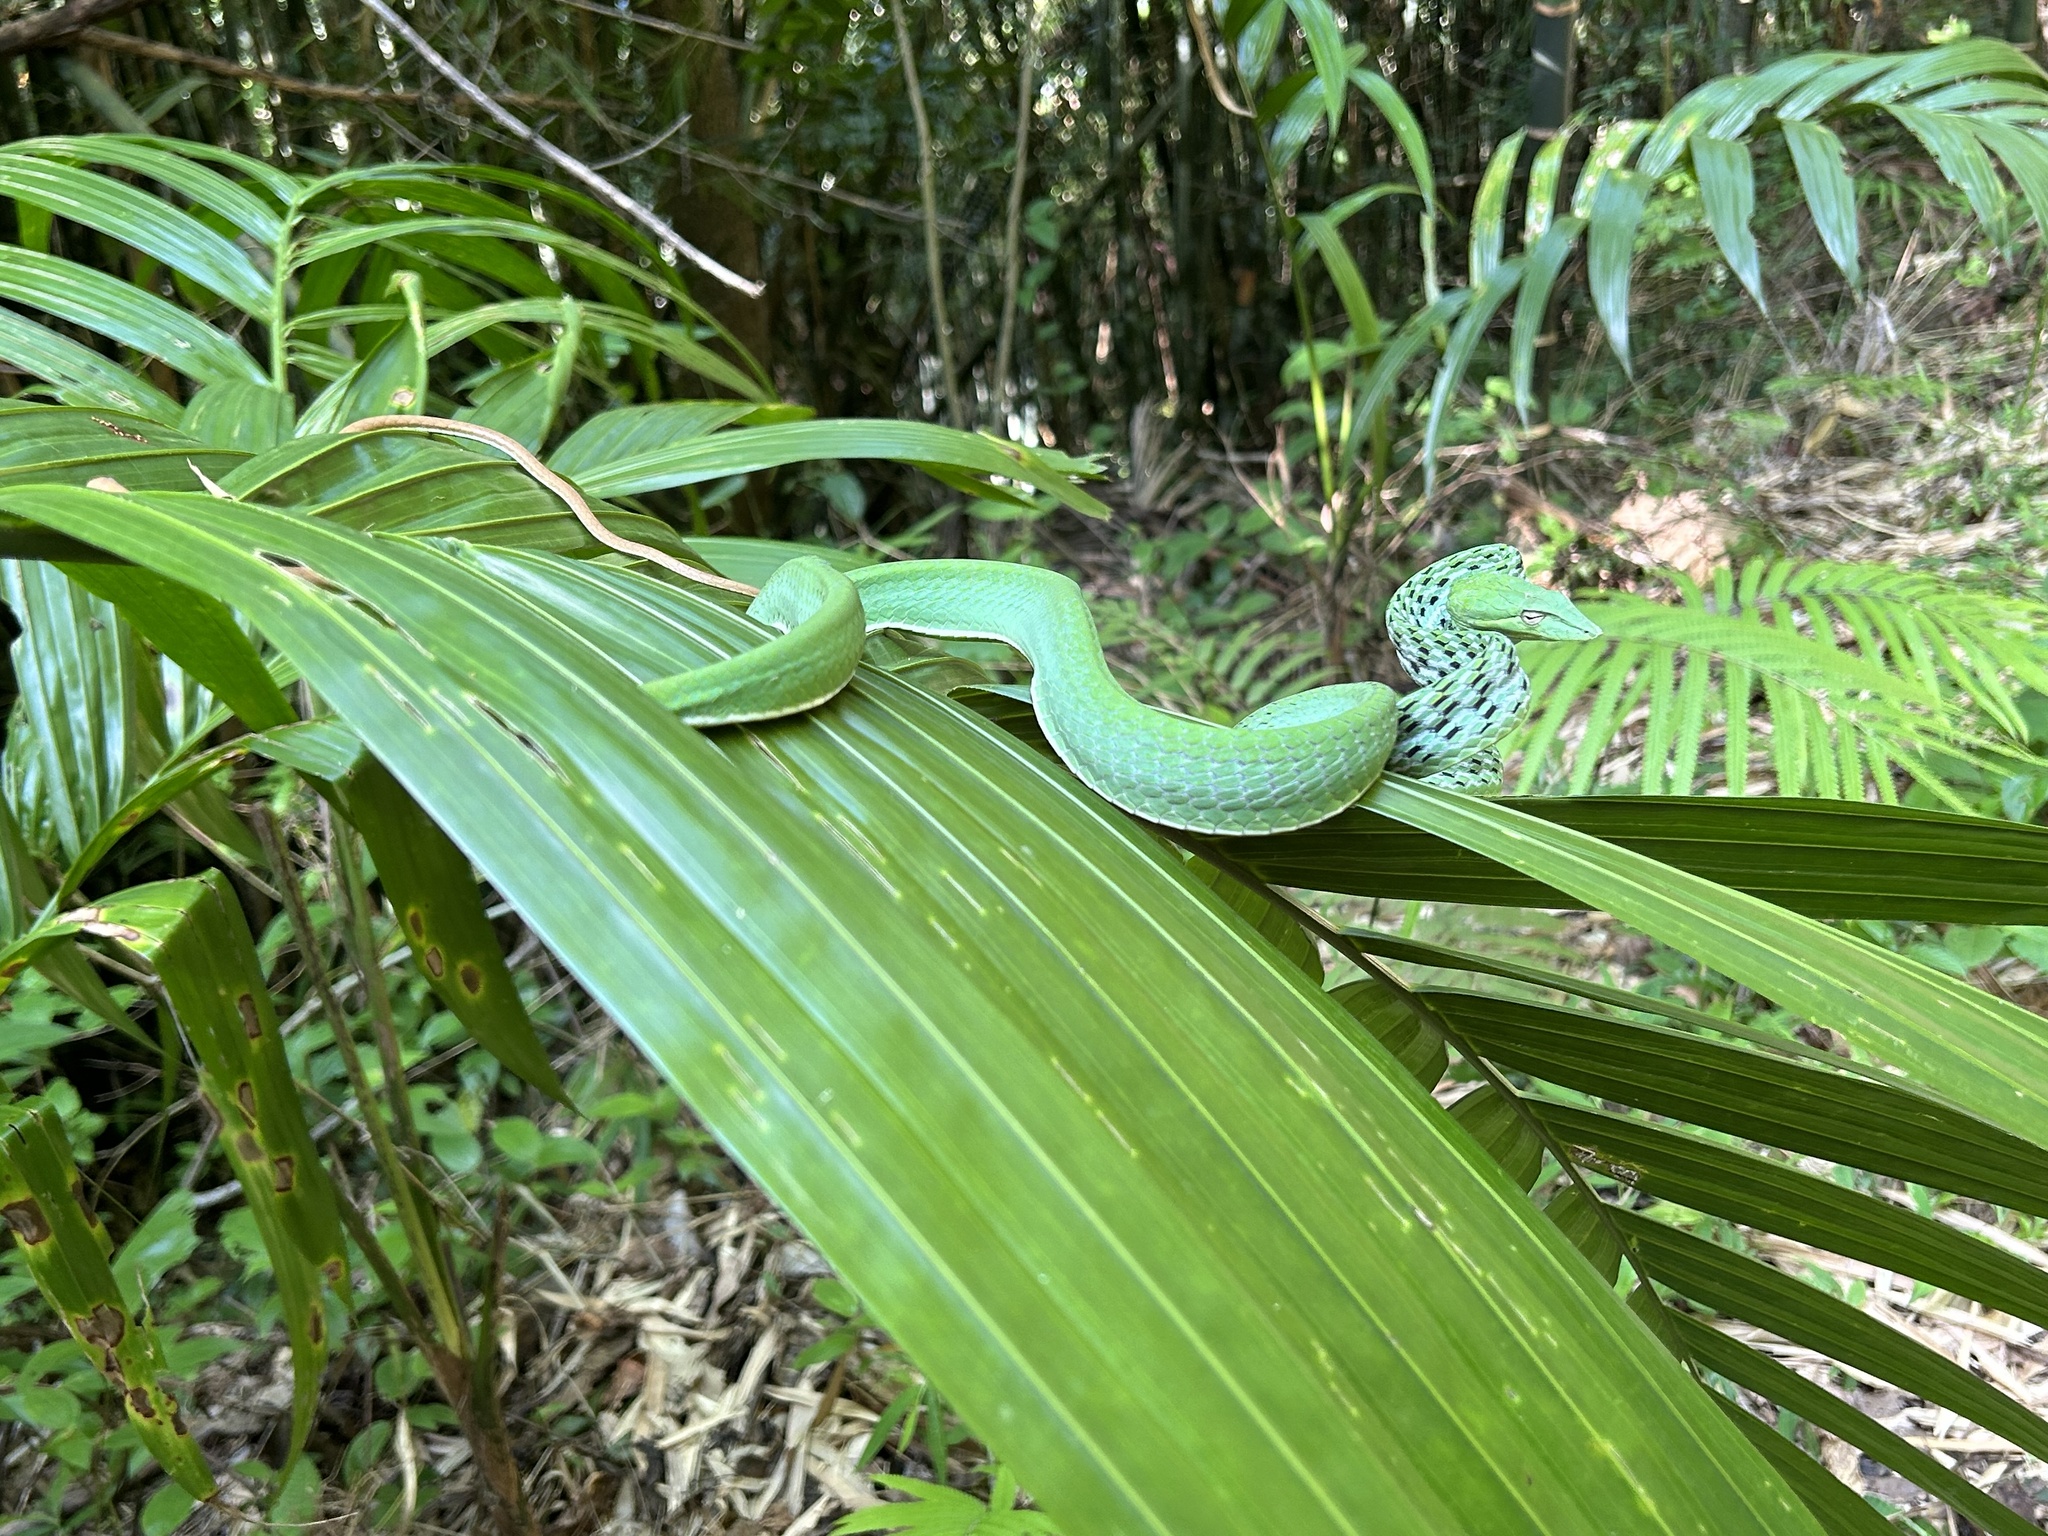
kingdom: Animalia
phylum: Chordata
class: Squamata
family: Colubridae
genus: Ahaetulla
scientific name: Ahaetulla prasina
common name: Oriental whip snake
